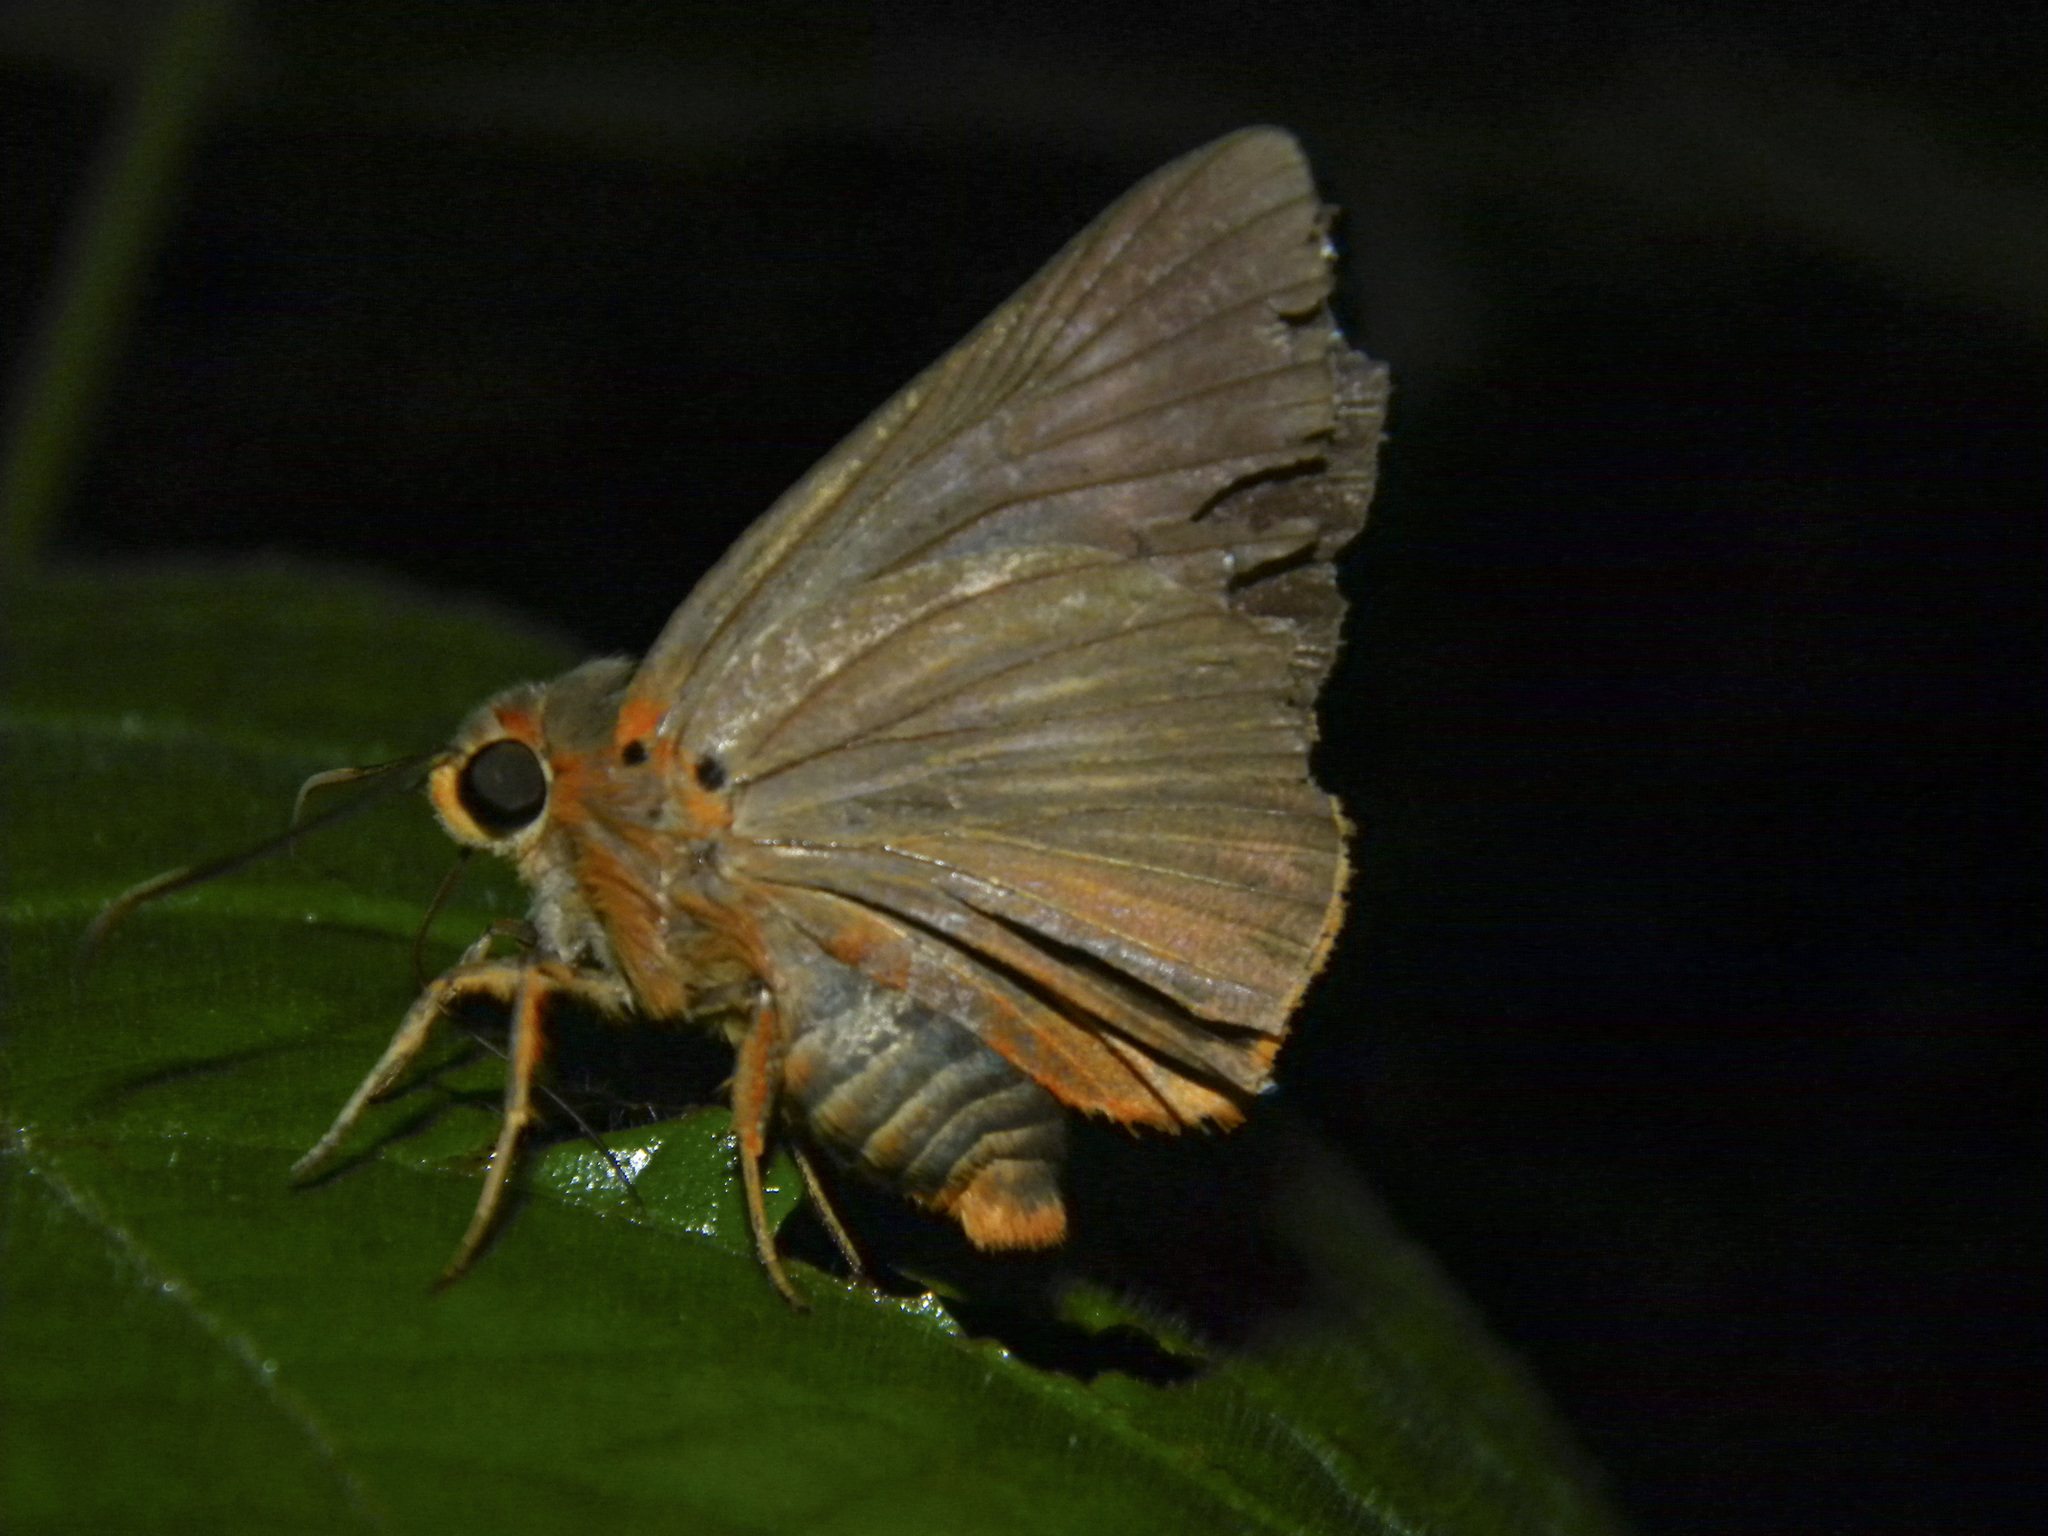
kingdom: Animalia
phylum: Arthropoda
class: Insecta
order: Lepidoptera
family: Hesperiidae
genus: Bibasis
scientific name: Bibasis jaina
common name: Common orange awlet
